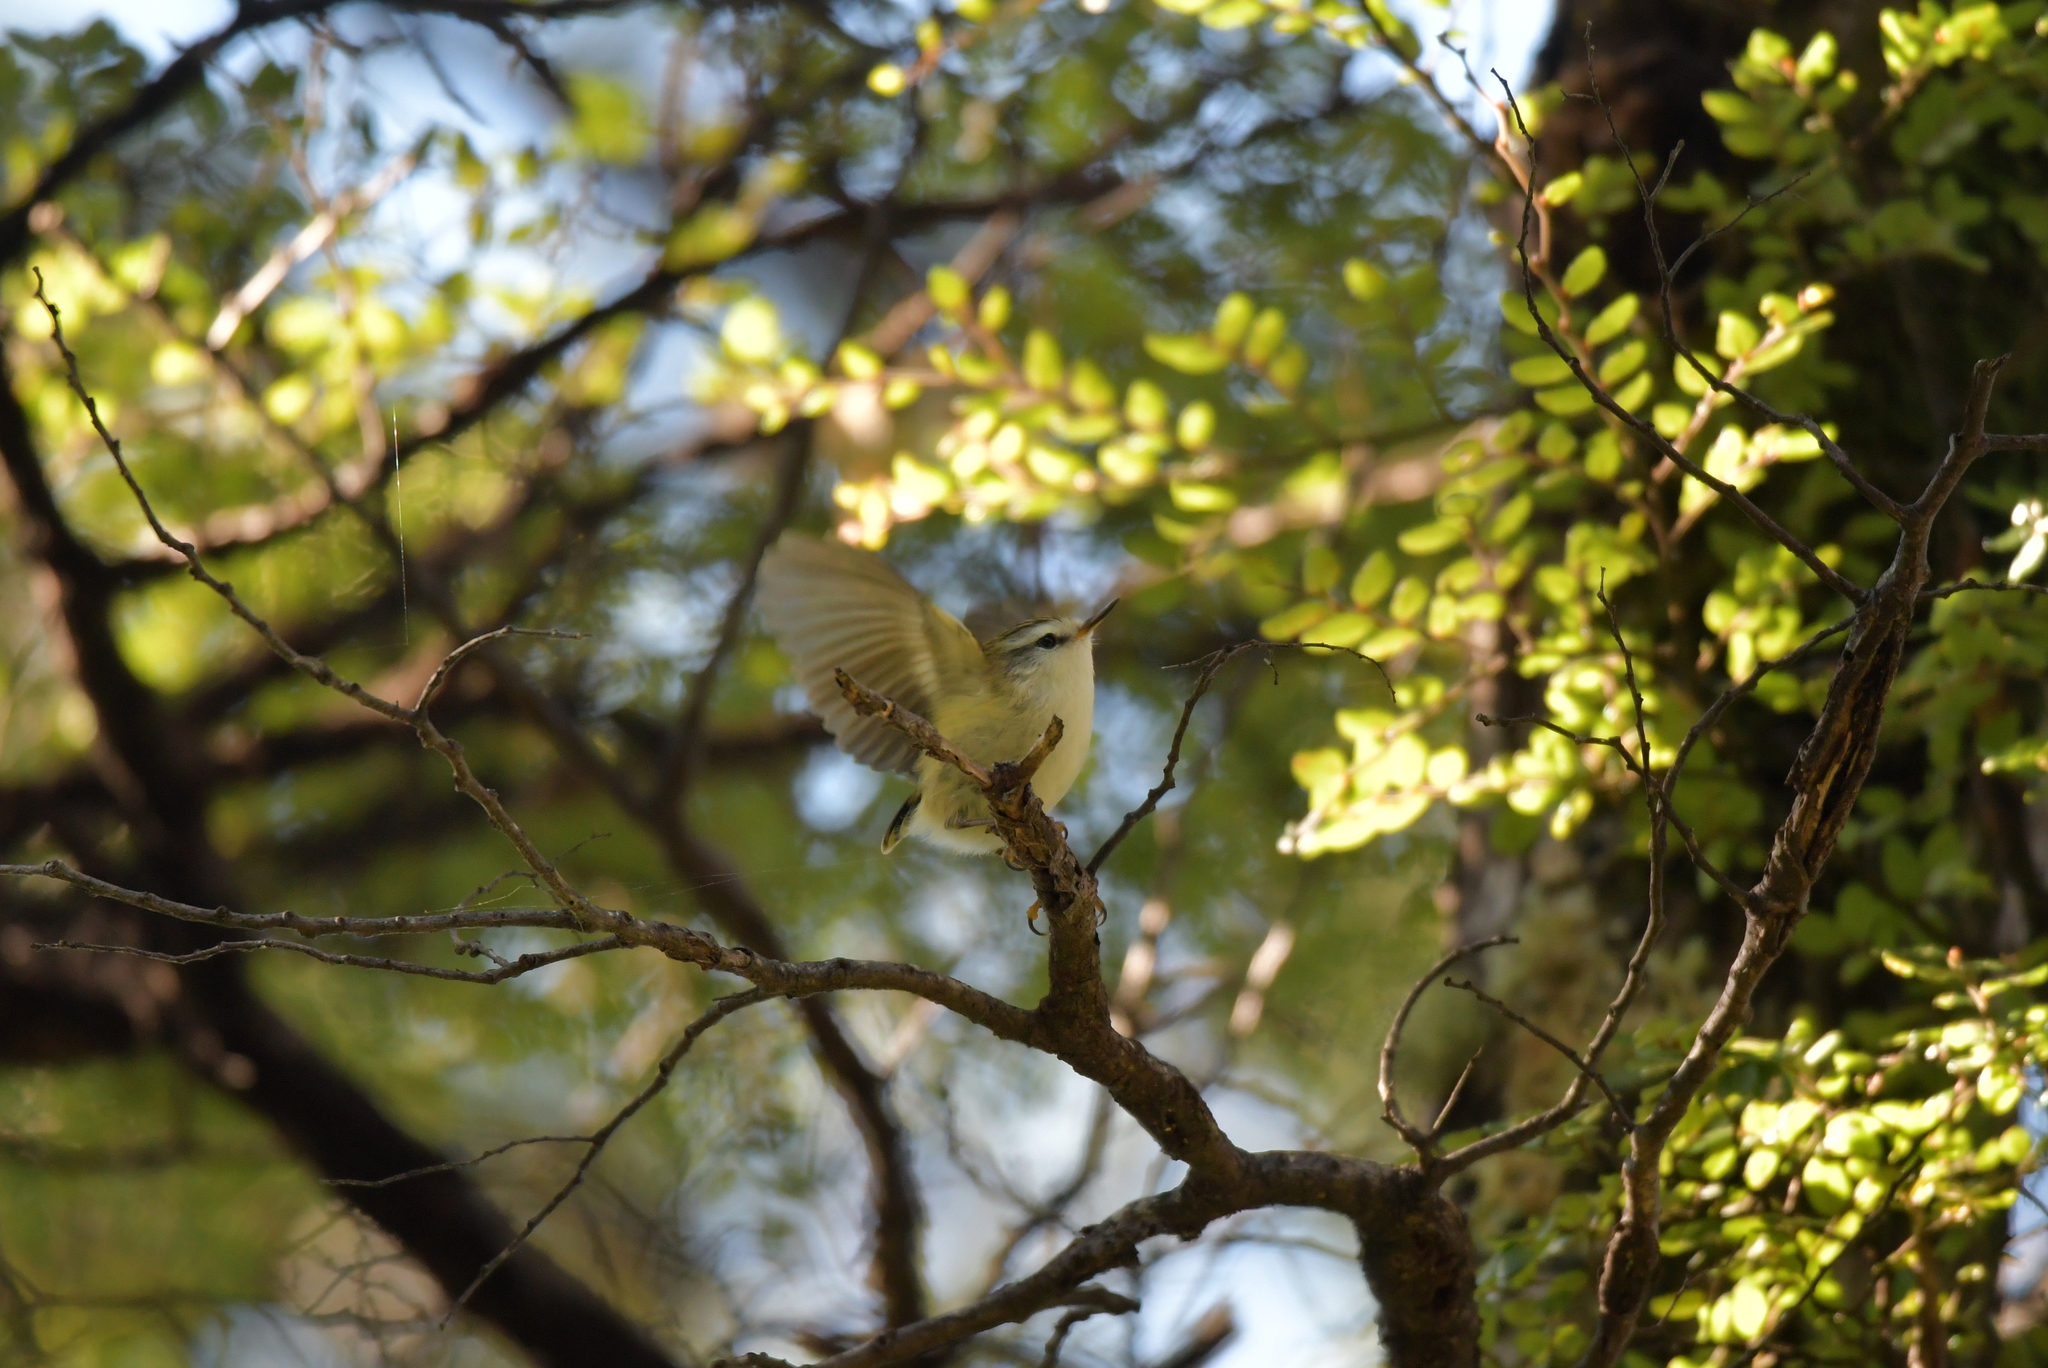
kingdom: Animalia
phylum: Chordata
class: Aves
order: Passeriformes
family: Acanthisittidae
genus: Acanthisitta
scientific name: Acanthisitta chloris
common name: Rifleman
